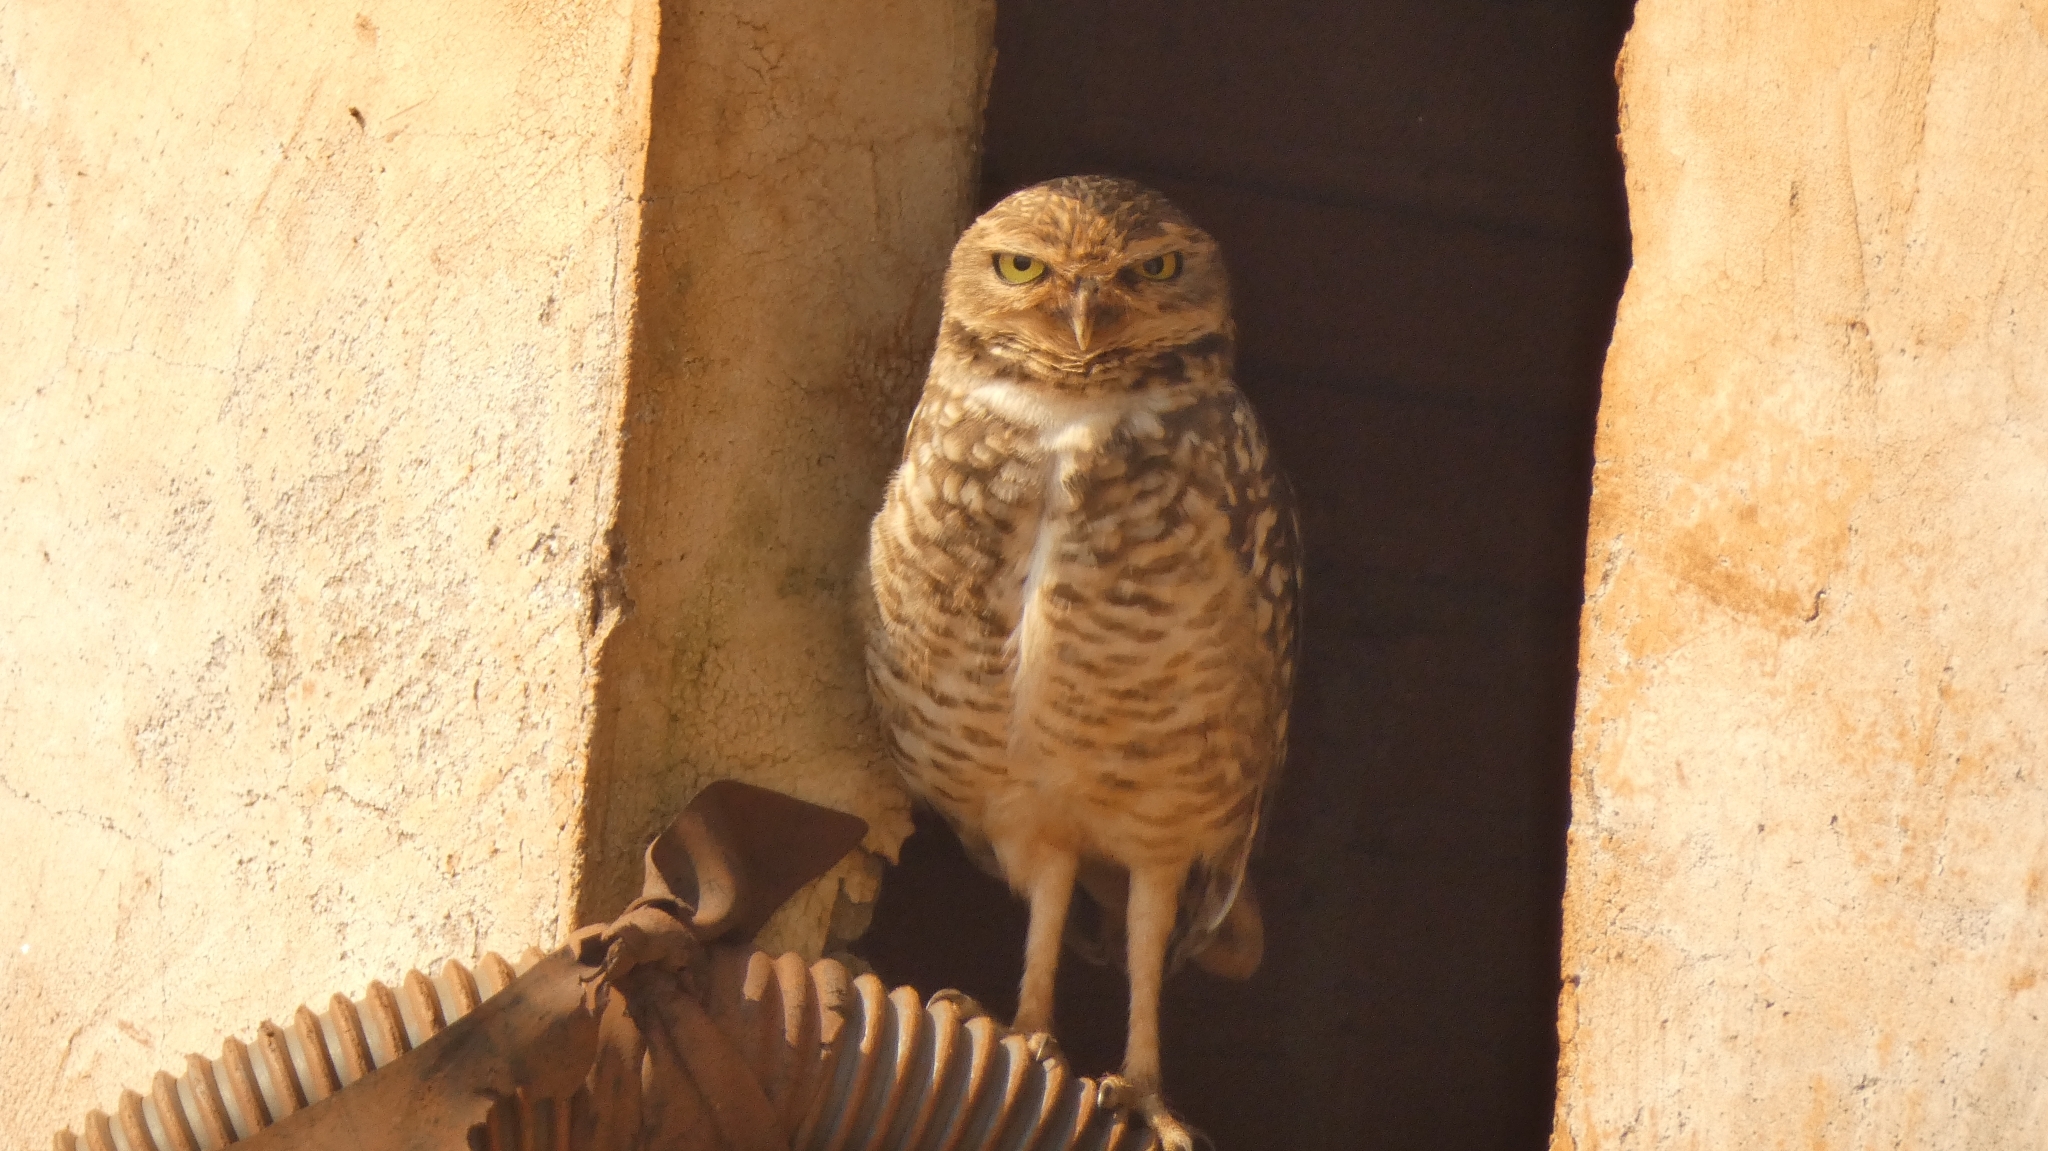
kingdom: Animalia
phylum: Chordata
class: Aves
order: Strigiformes
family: Strigidae
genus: Athene
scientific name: Athene cunicularia
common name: Burrowing owl
